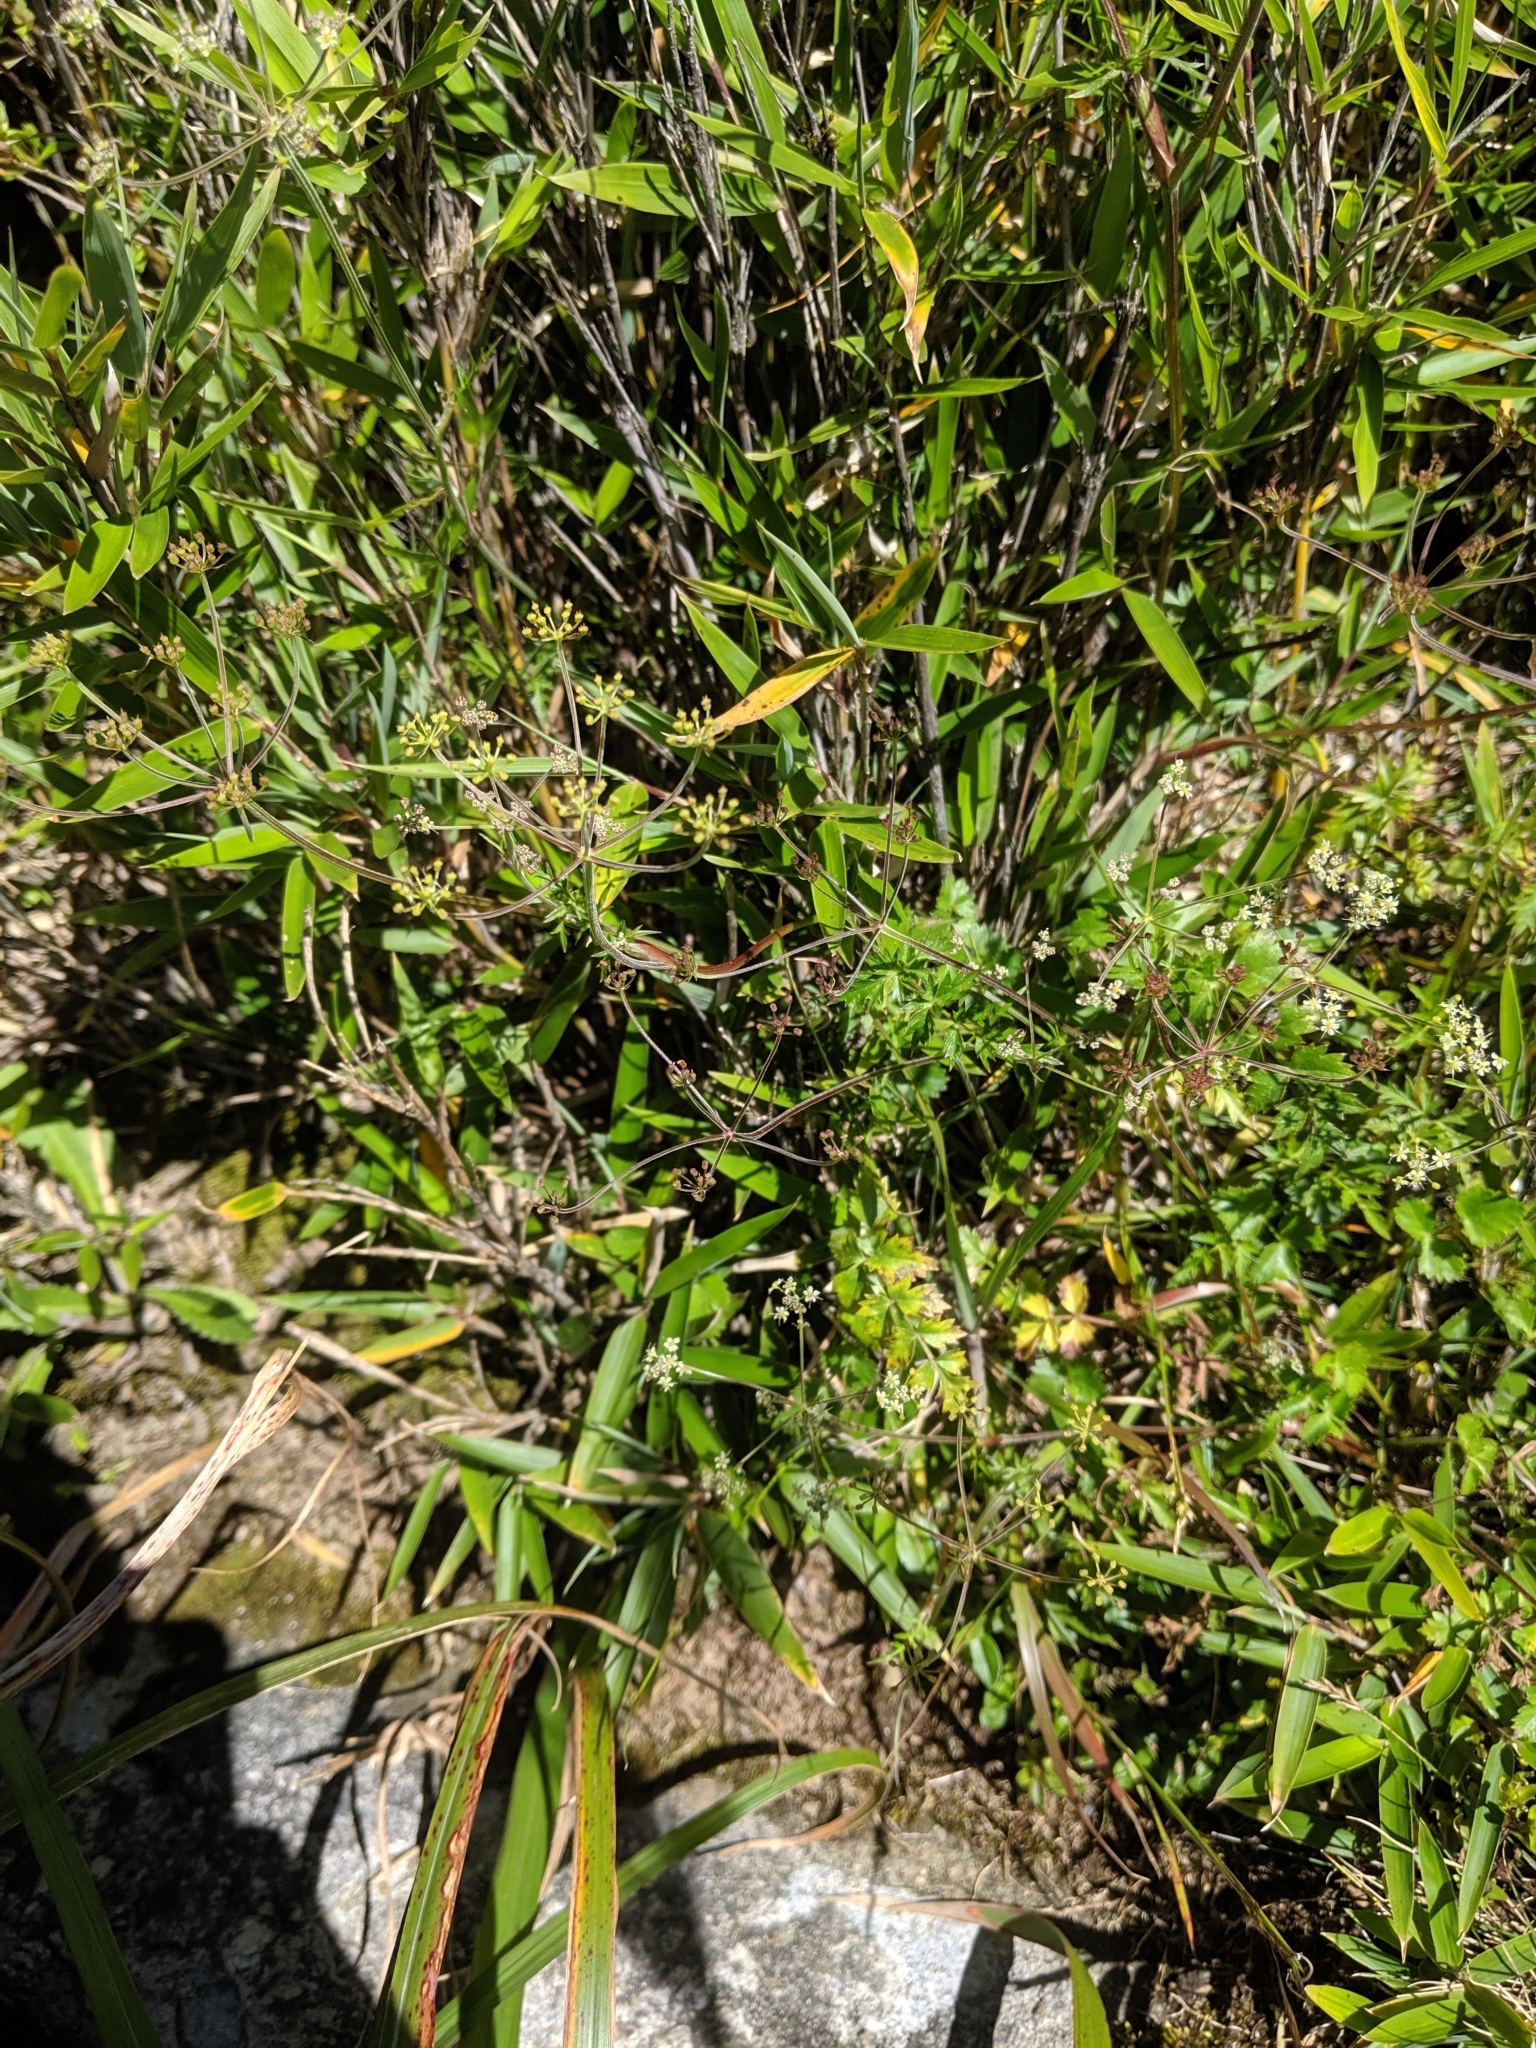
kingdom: Plantae
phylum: Tracheophyta
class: Magnoliopsida
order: Apiales
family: Apiaceae
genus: Pimpinella
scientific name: Pimpinella niitakayamensis
